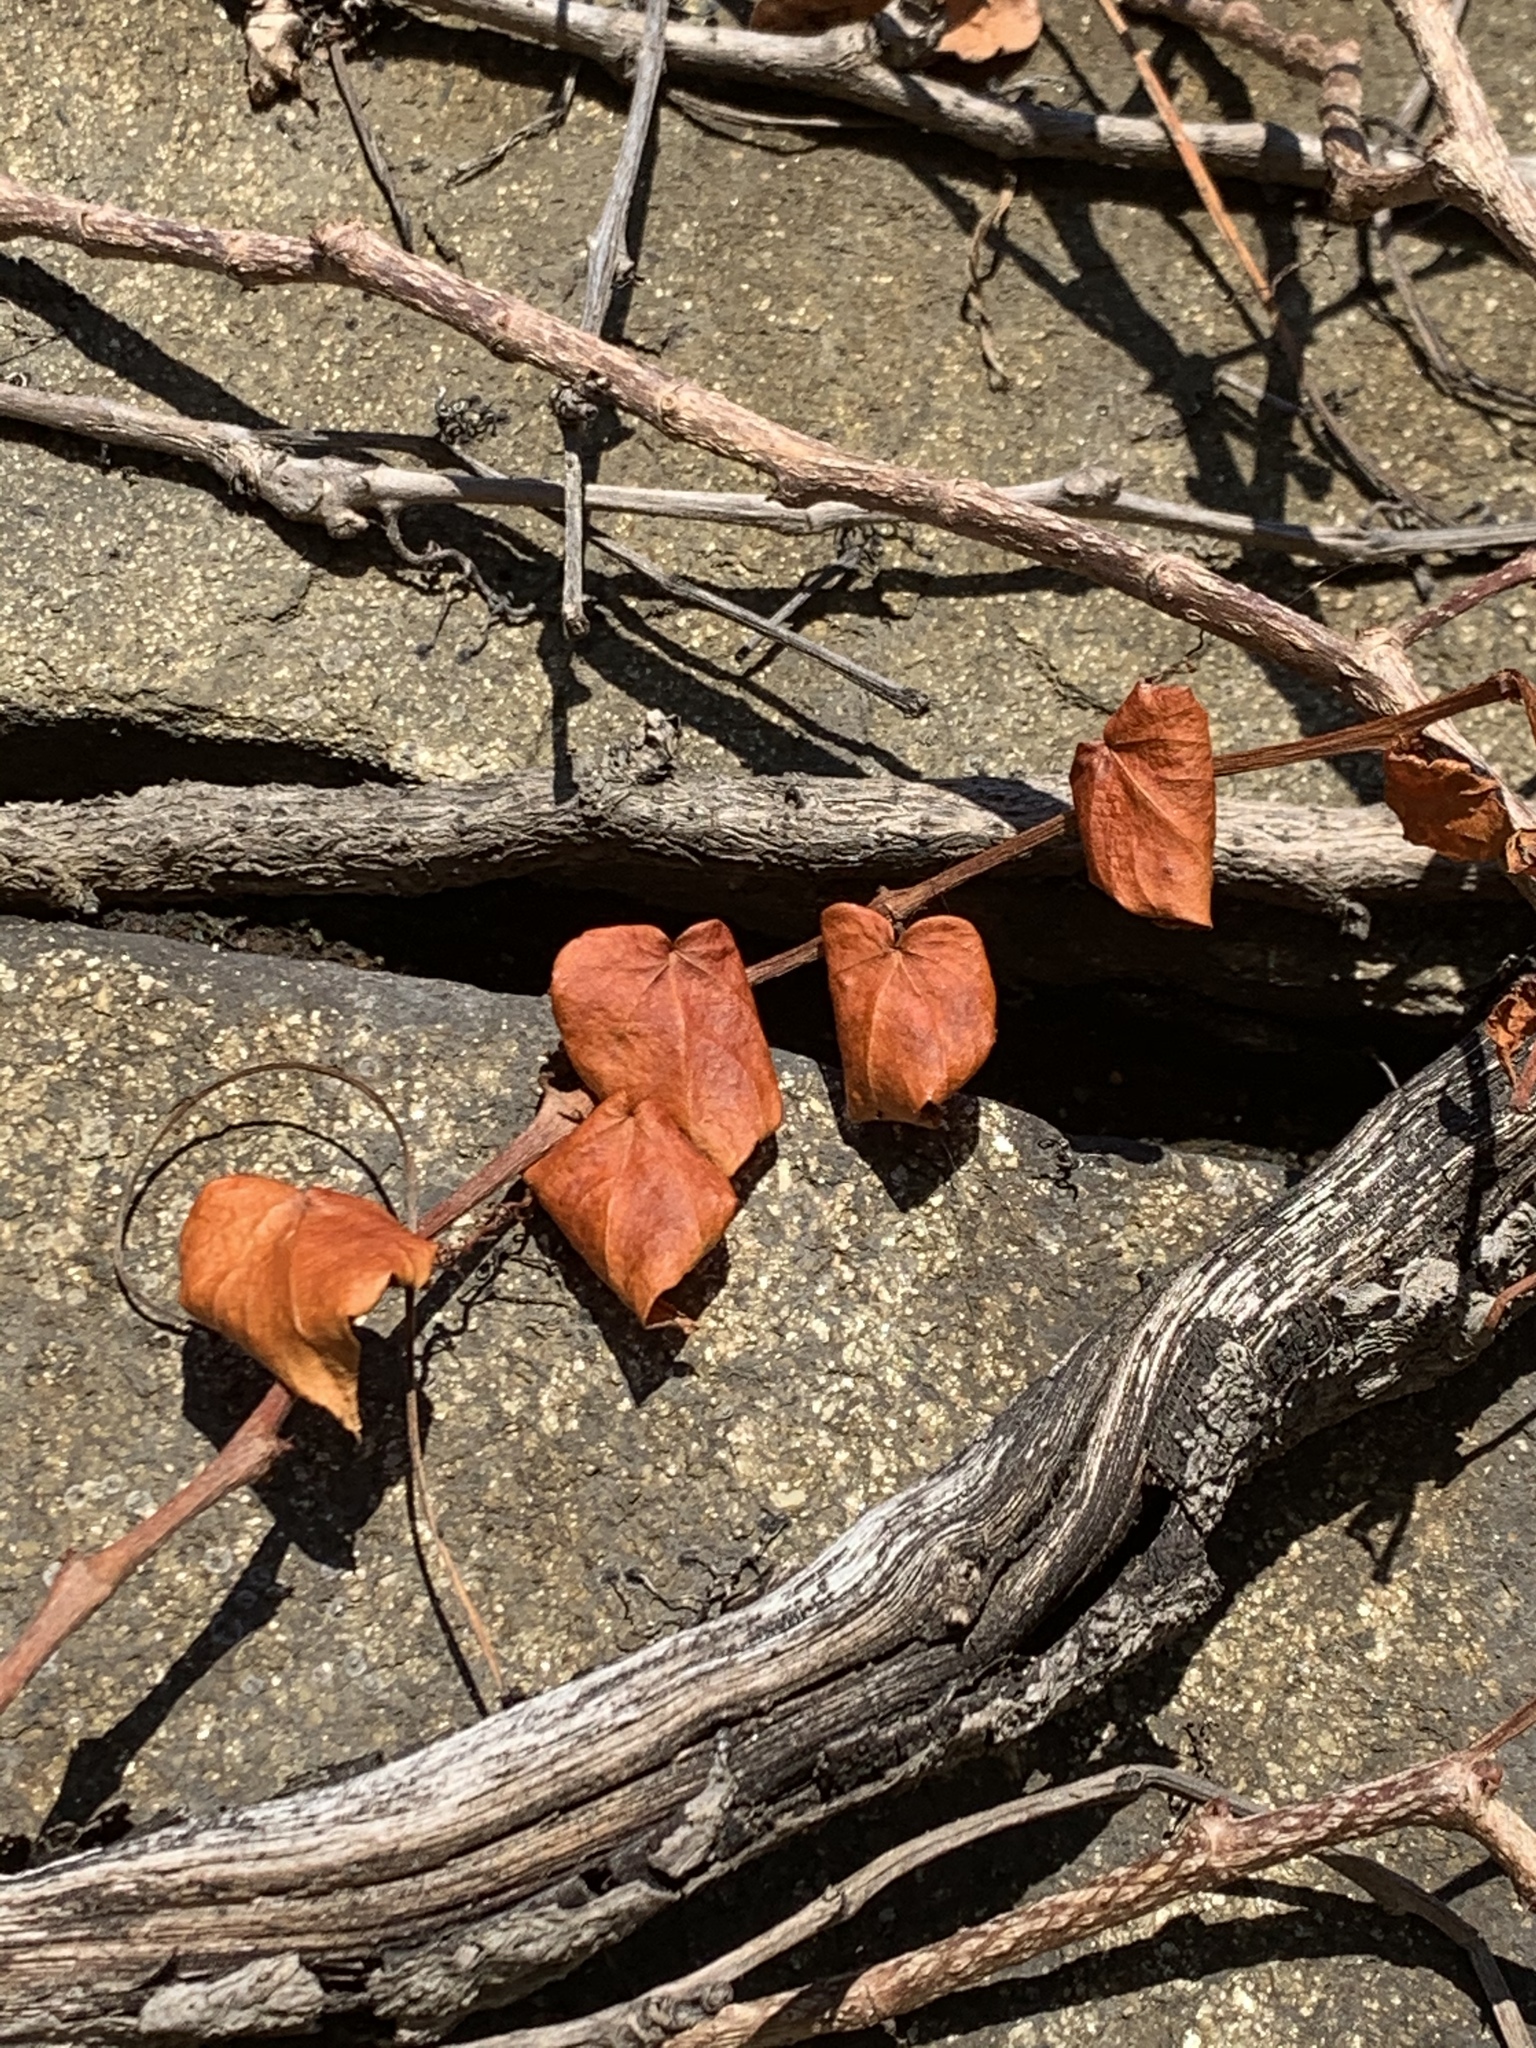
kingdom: Plantae
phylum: Tracheophyta
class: Magnoliopsida
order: Vitales
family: Vitaceae
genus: Parthenocissus
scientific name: Parthenocissus tricuspidata
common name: Boston ivy
